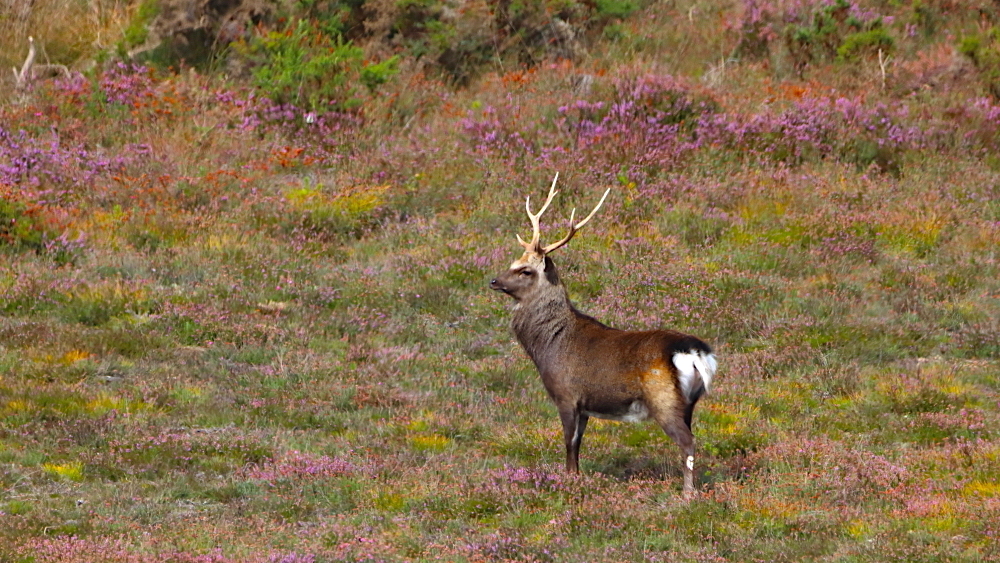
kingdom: Animalia
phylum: Chordata
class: Mammalia
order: Artiodactyla
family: Cervidae
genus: Cervus
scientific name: Cervus nippon
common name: Sika deer
